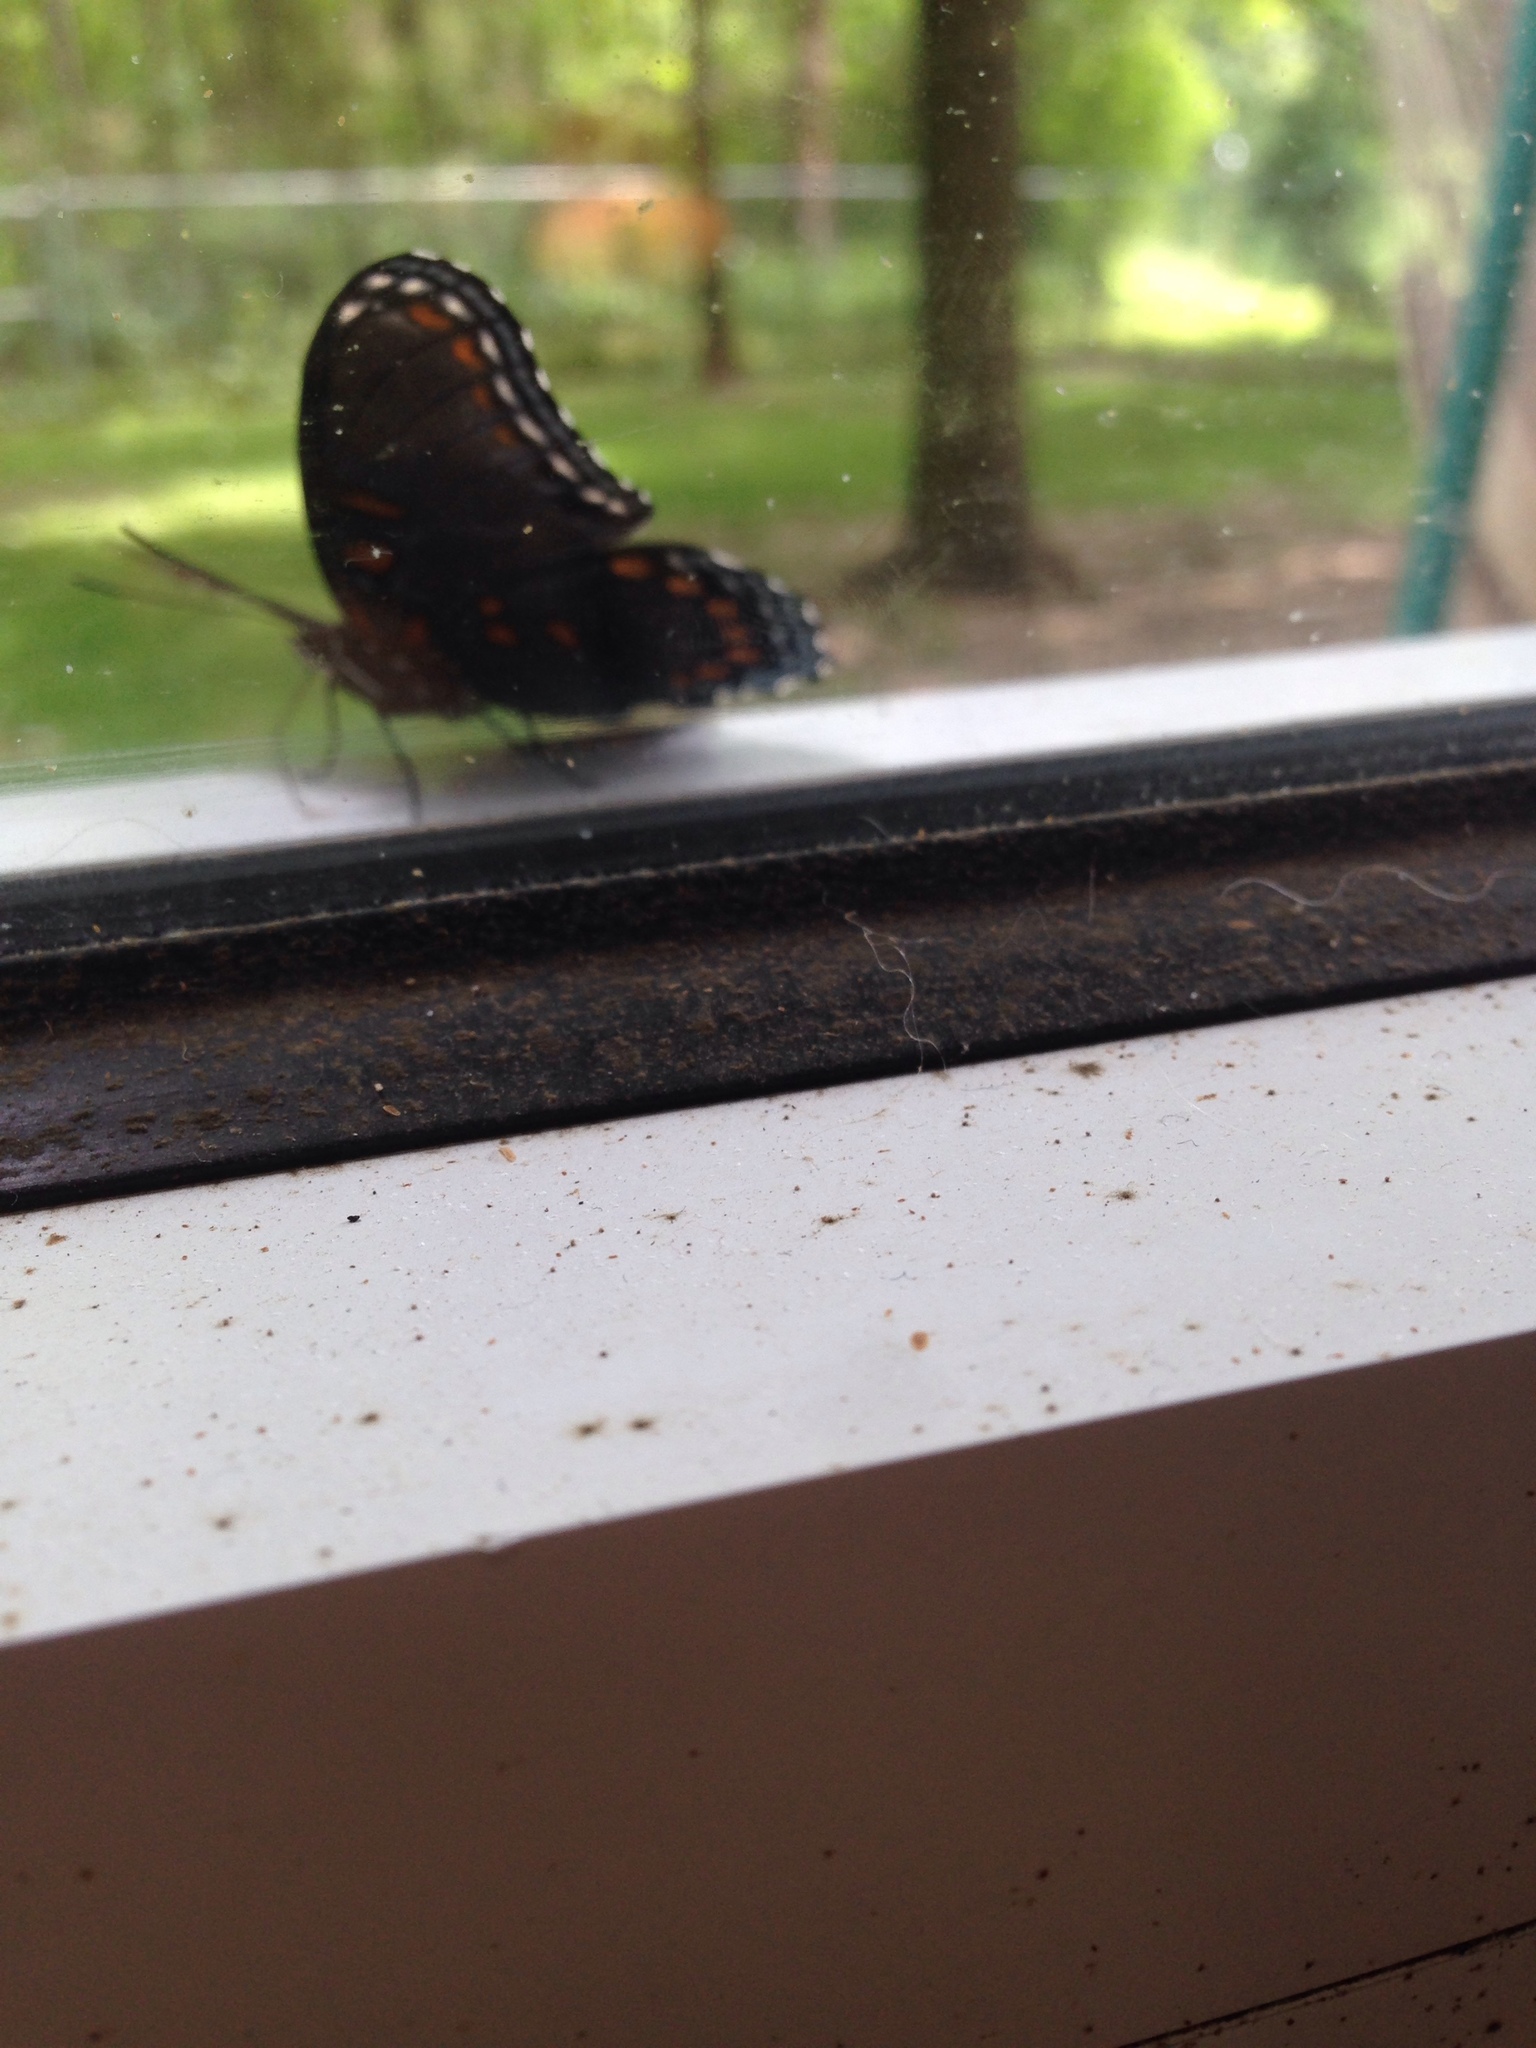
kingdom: Animalia
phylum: Arthropoda
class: Insecta
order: Lepidoptera
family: Nymphalidae
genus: Limenitis
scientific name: Limenitis arthemis
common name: Red-spotted admiral
